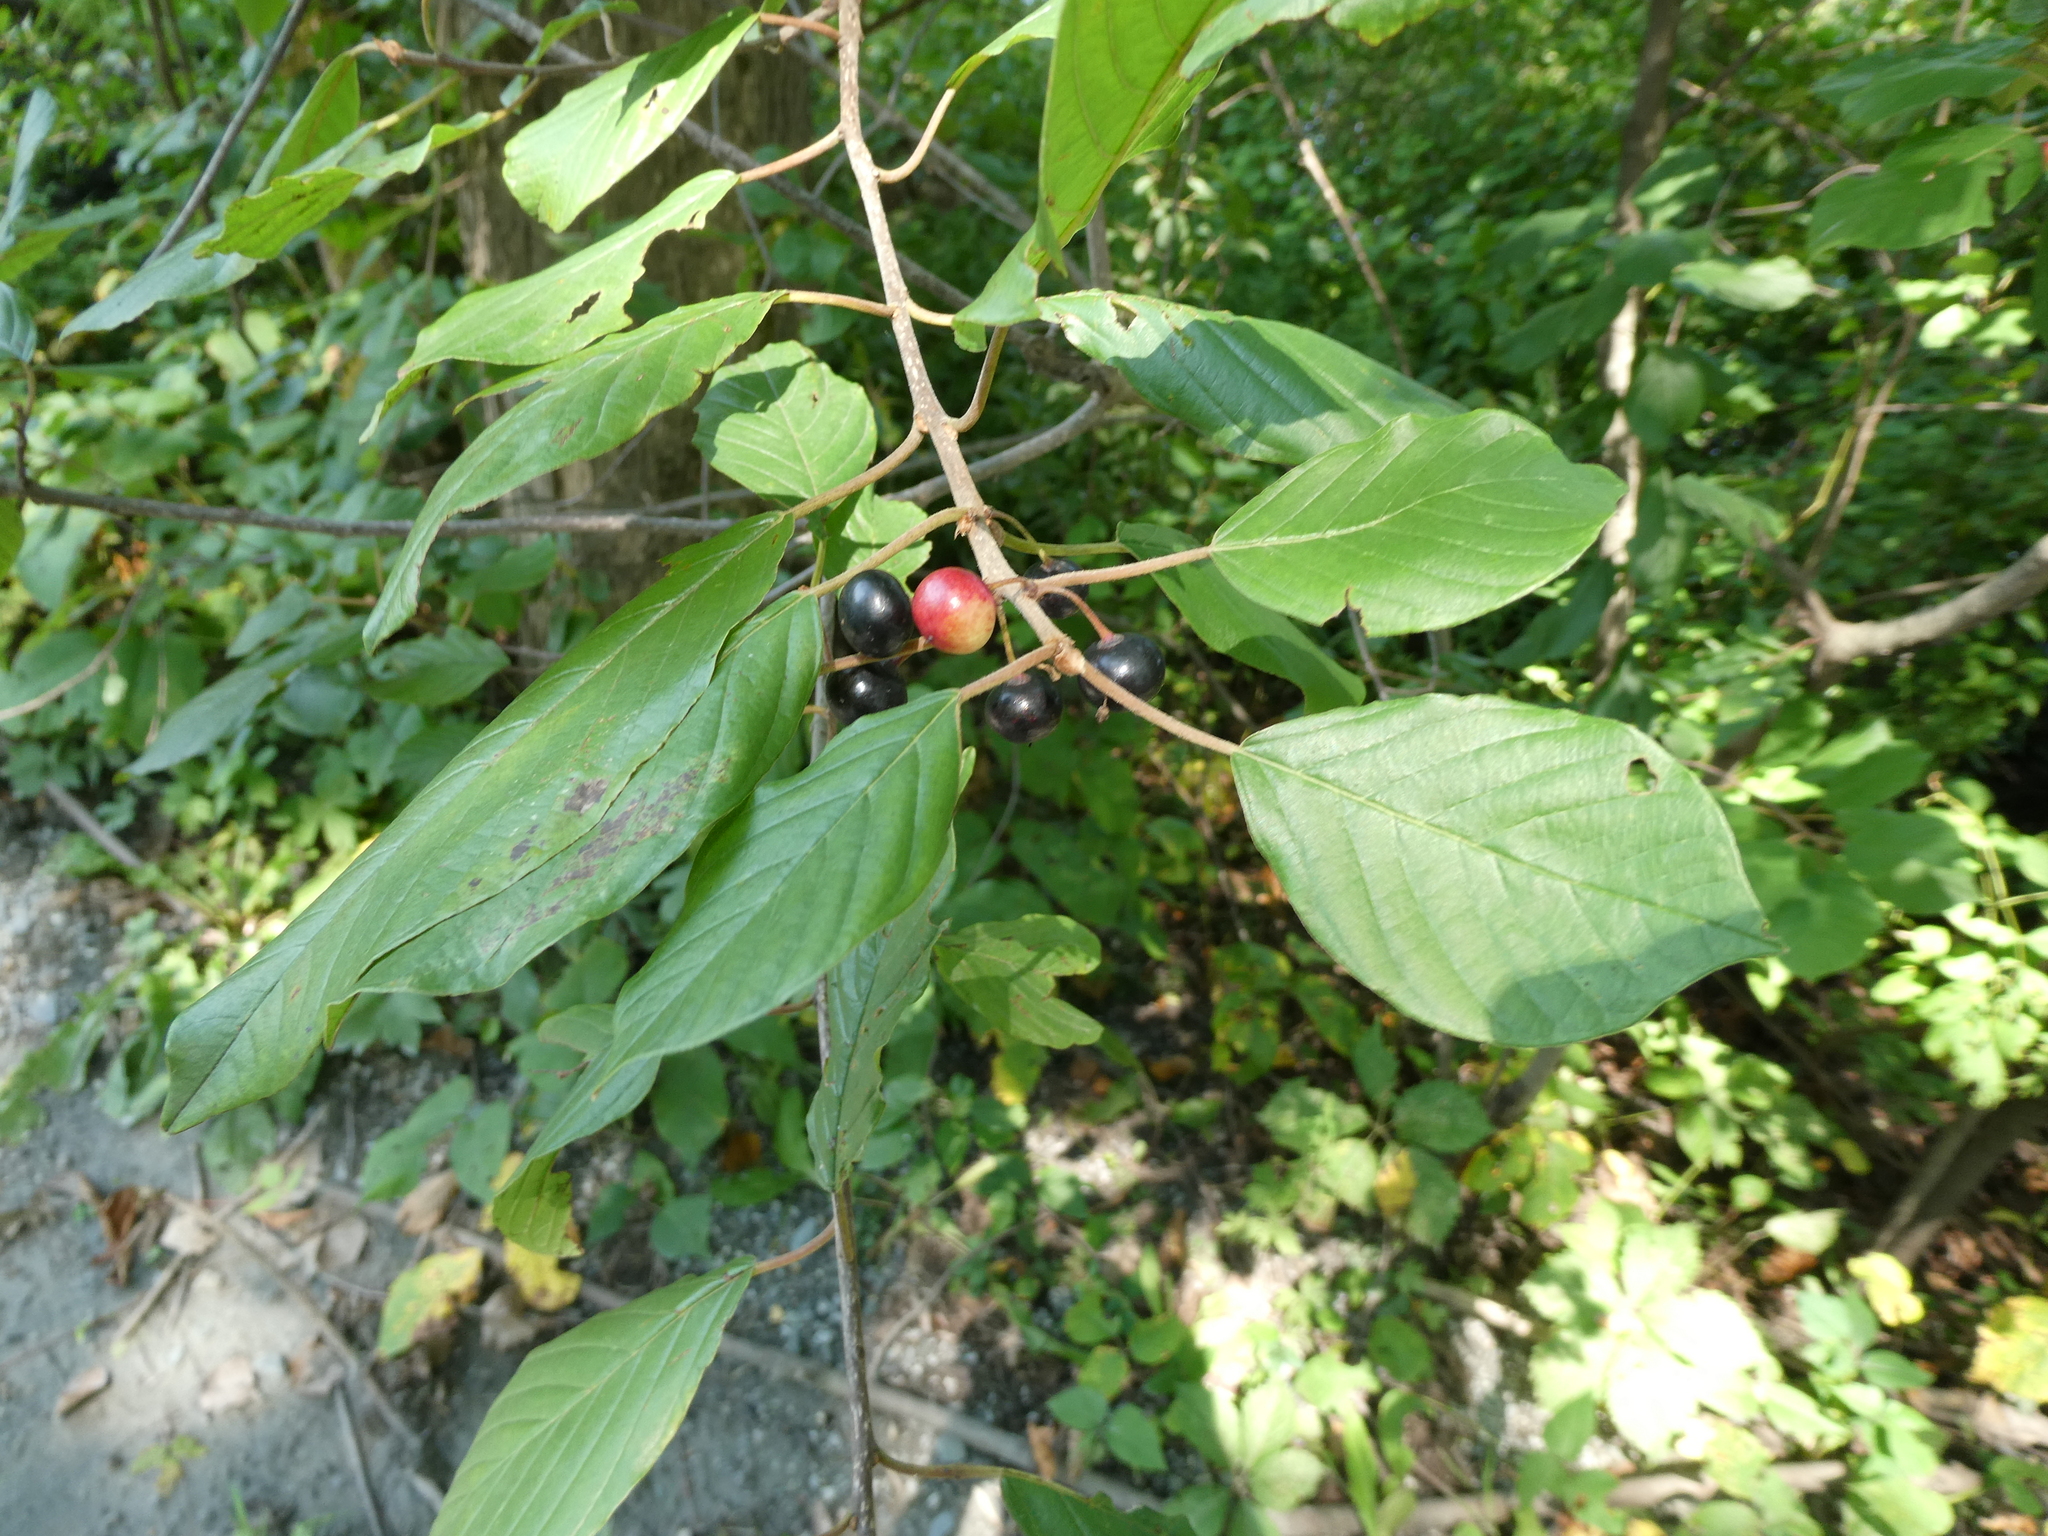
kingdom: Plantae
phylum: Tracheophyta
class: Magnoliopsida
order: Rosales
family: Rhamnaceae
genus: Frangula
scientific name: Frangula alnus
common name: Alder buckthorn
